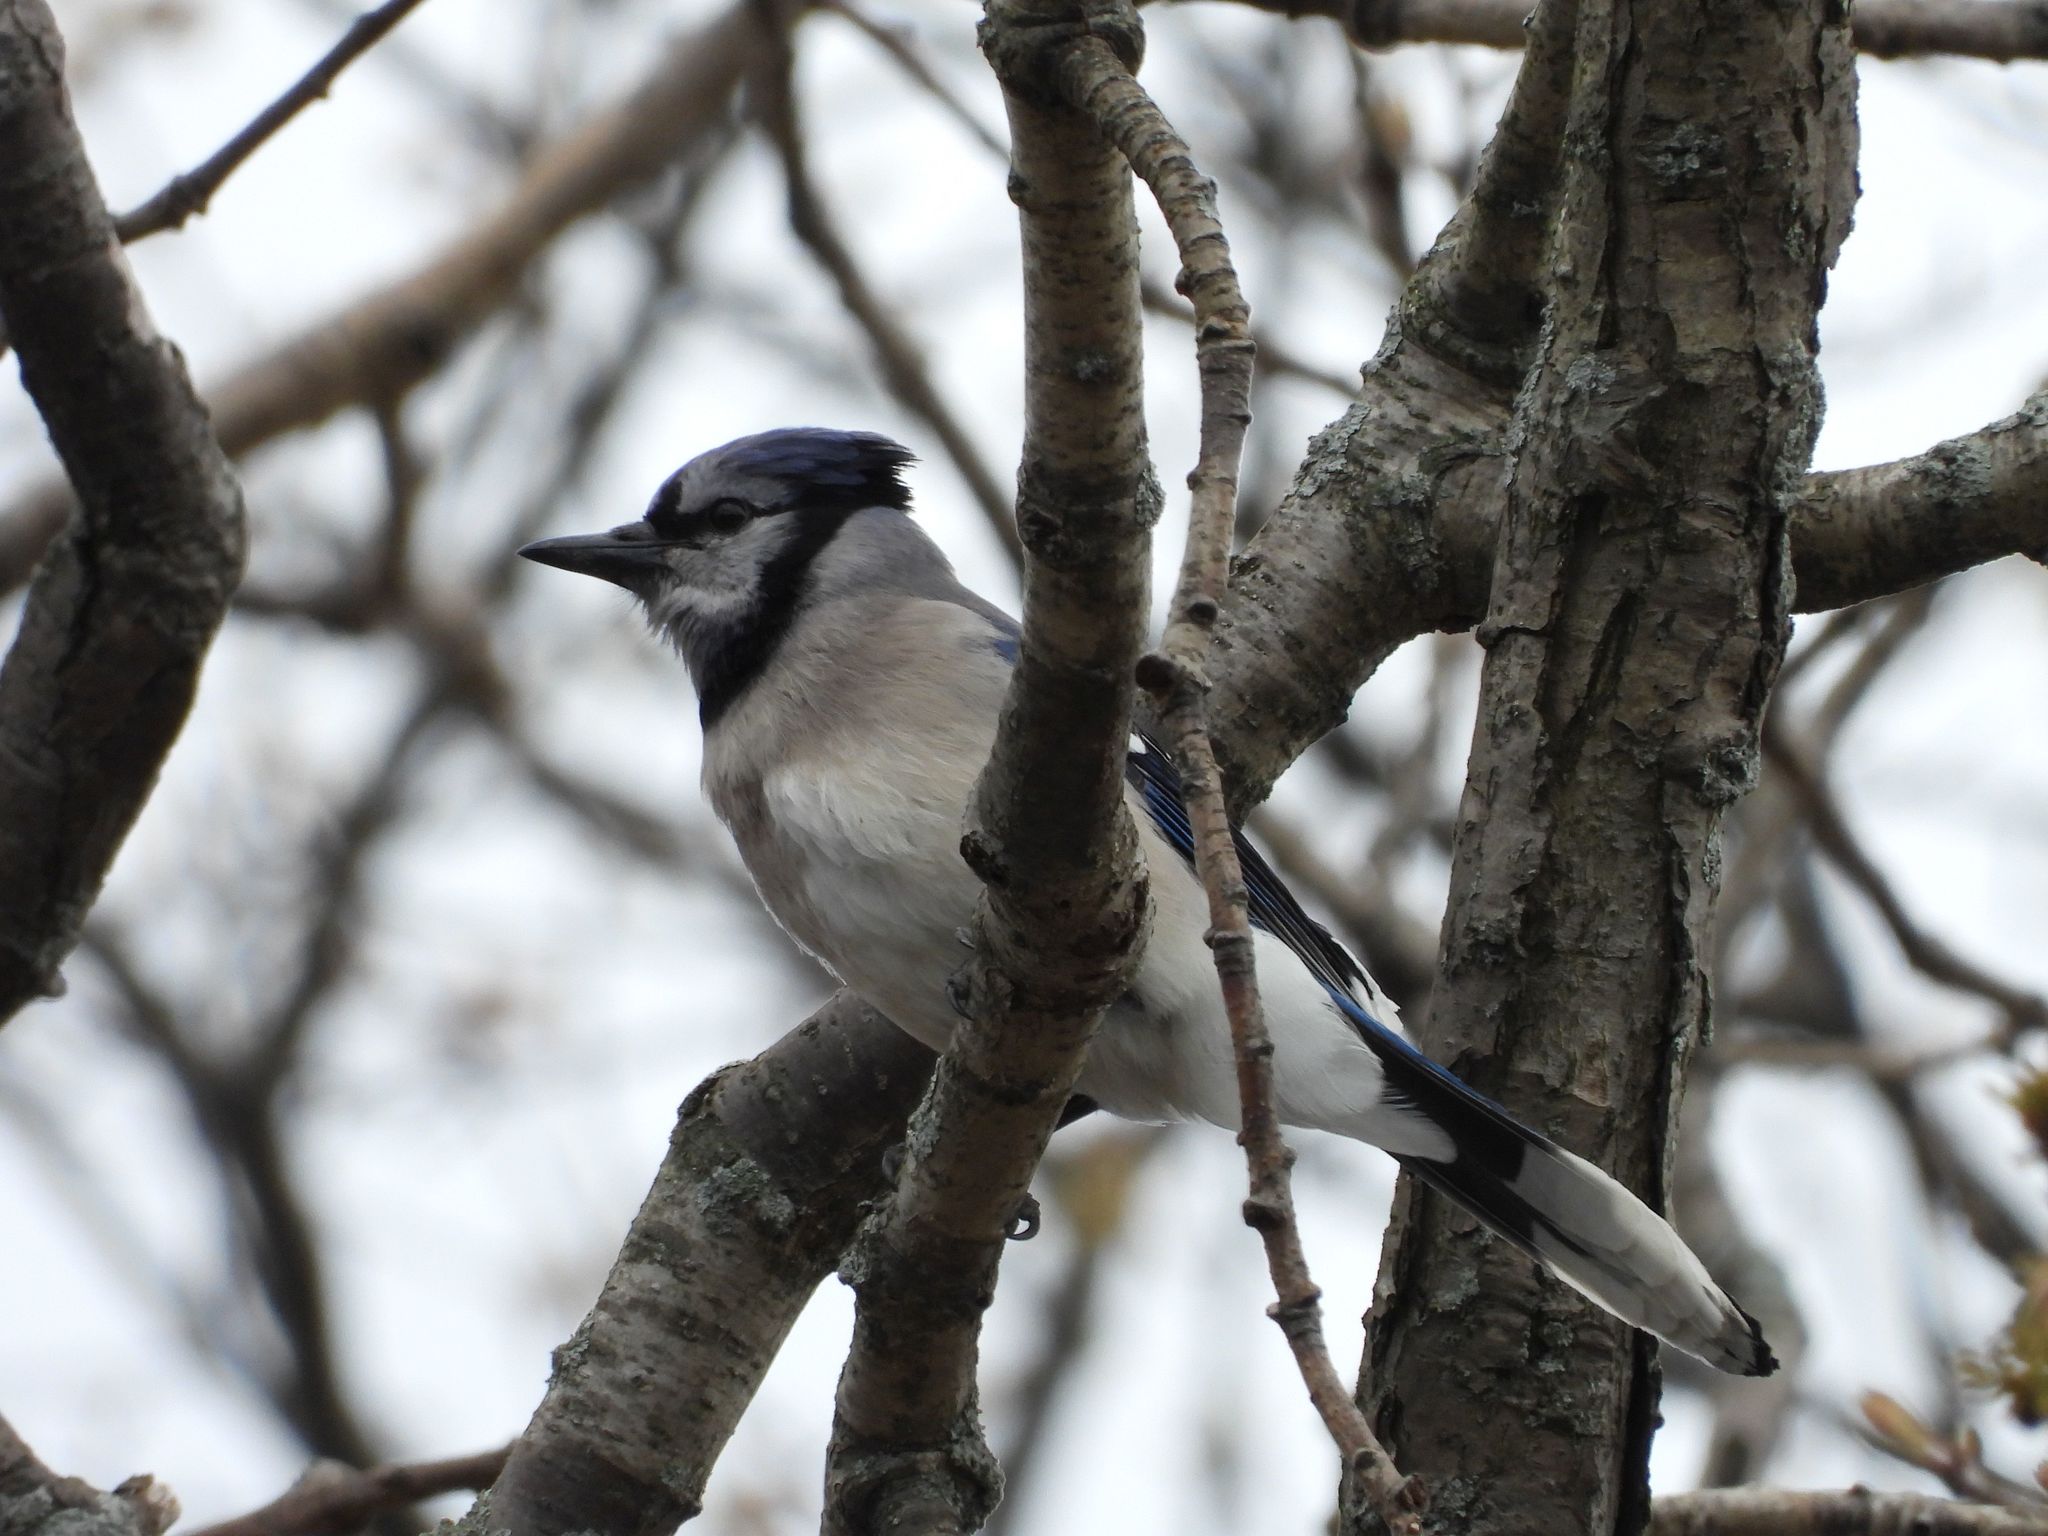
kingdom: Animalia
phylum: Chordata
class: Aves
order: Passeriformes
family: Corvidae
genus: Cyanocitta
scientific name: Cyanocitta cristata
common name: Blue jay
